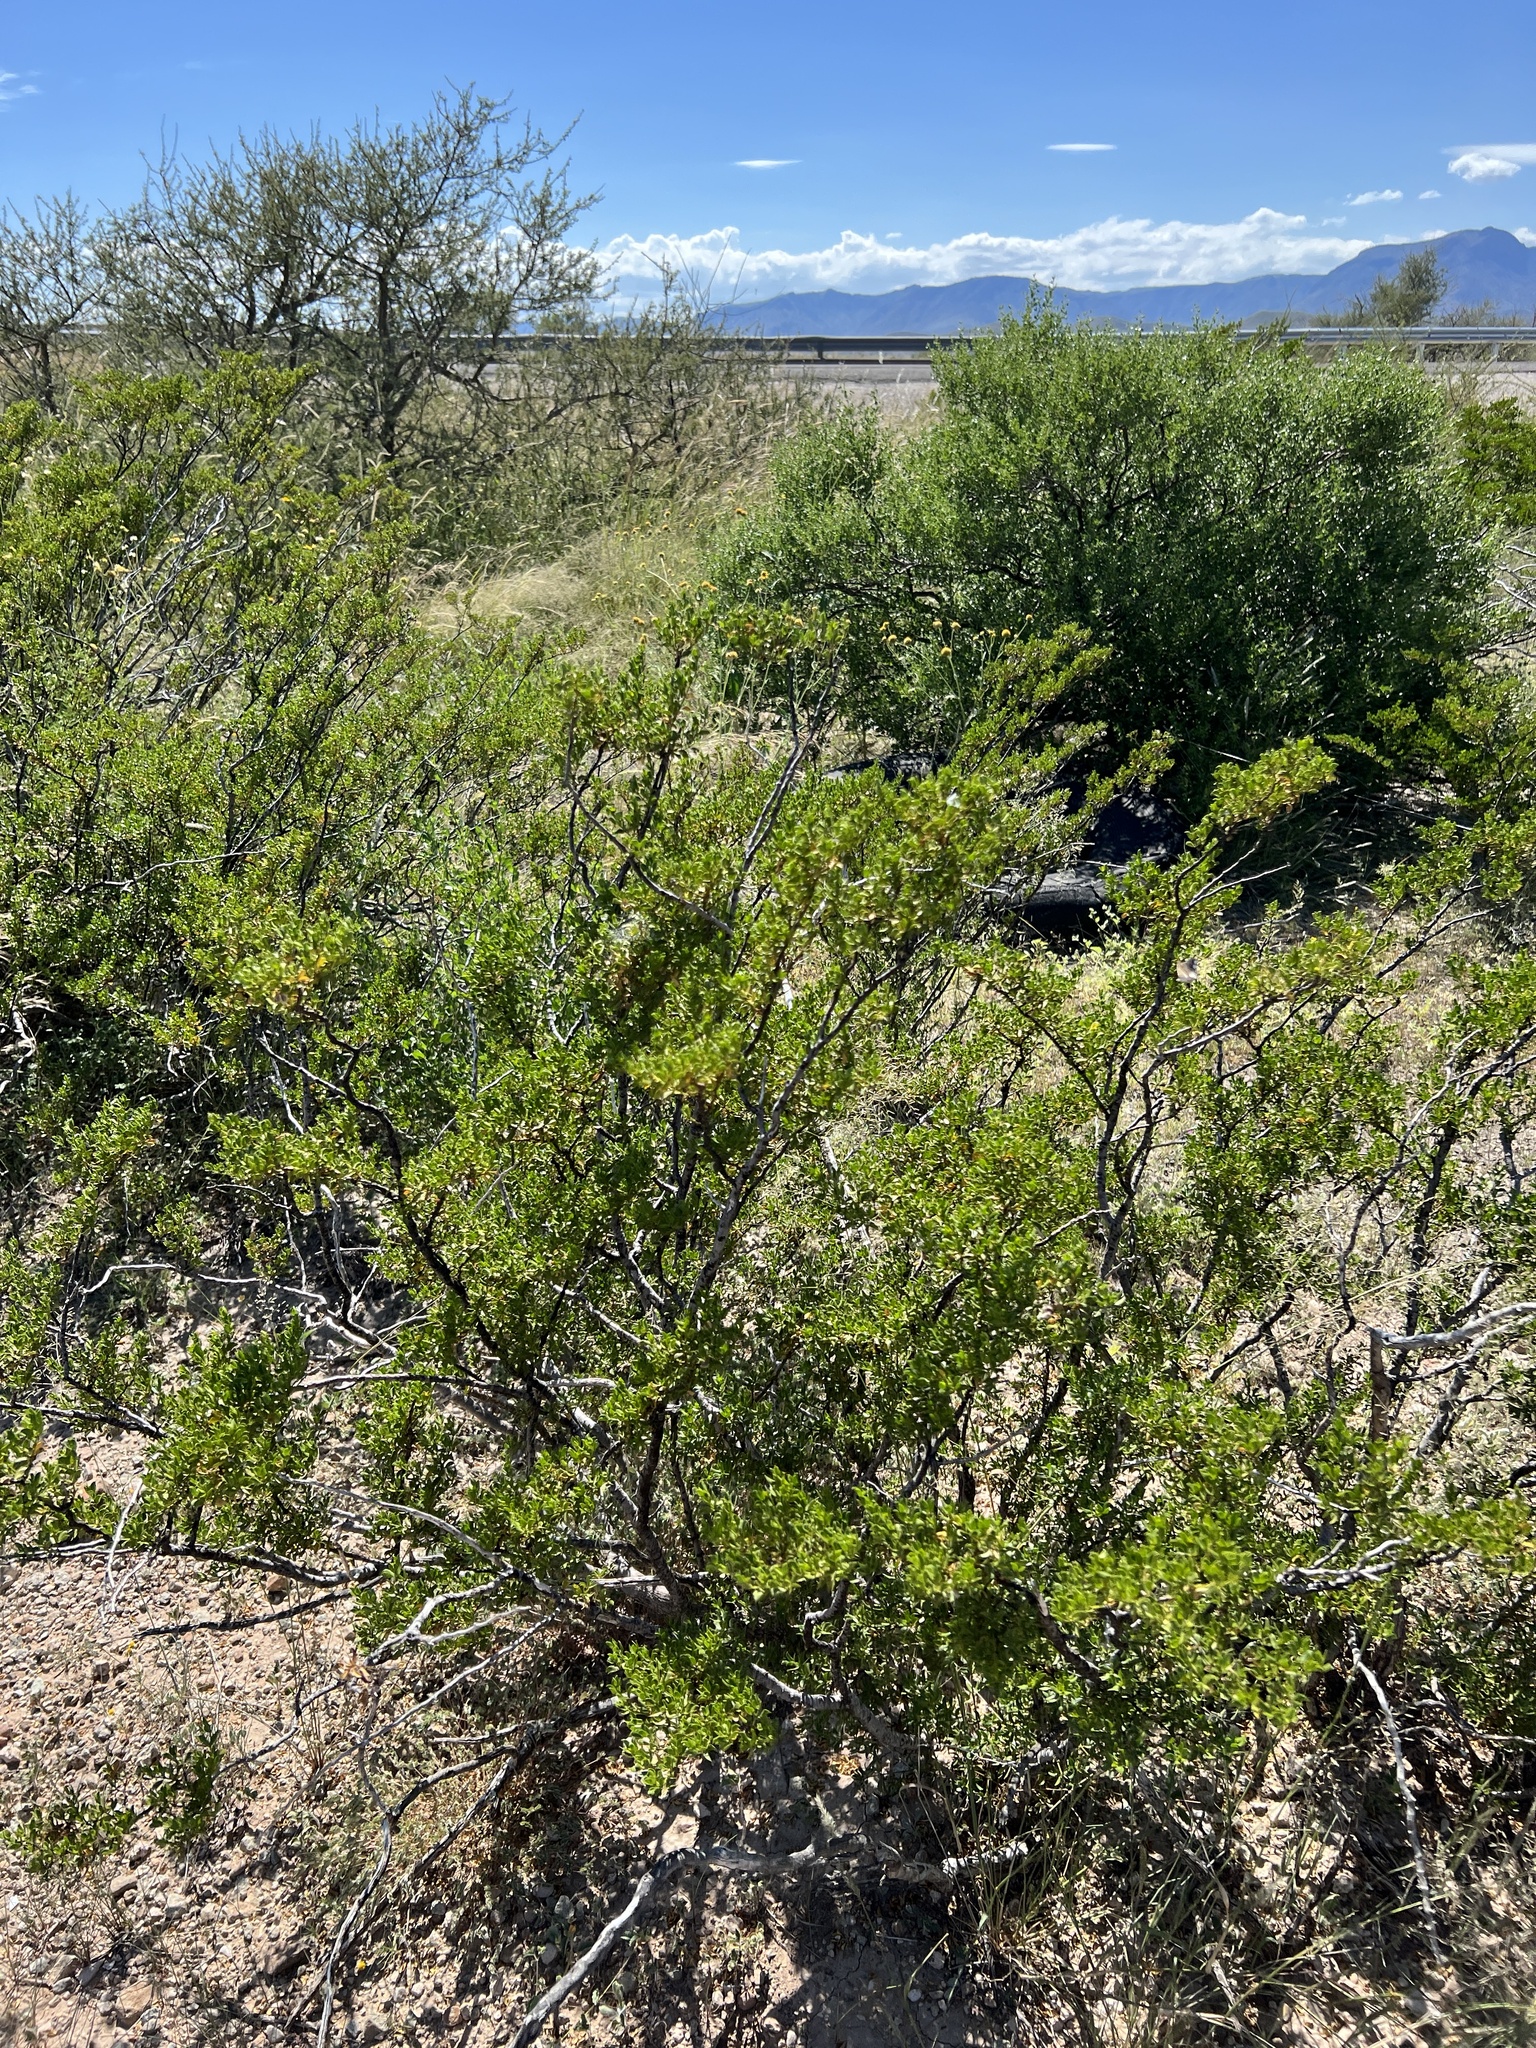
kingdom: Plantae
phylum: Tracheophyta
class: Magnoliopsida
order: Zygophyllales
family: Zygophyllaceae
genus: Larrea
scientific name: Larrea tridentata
